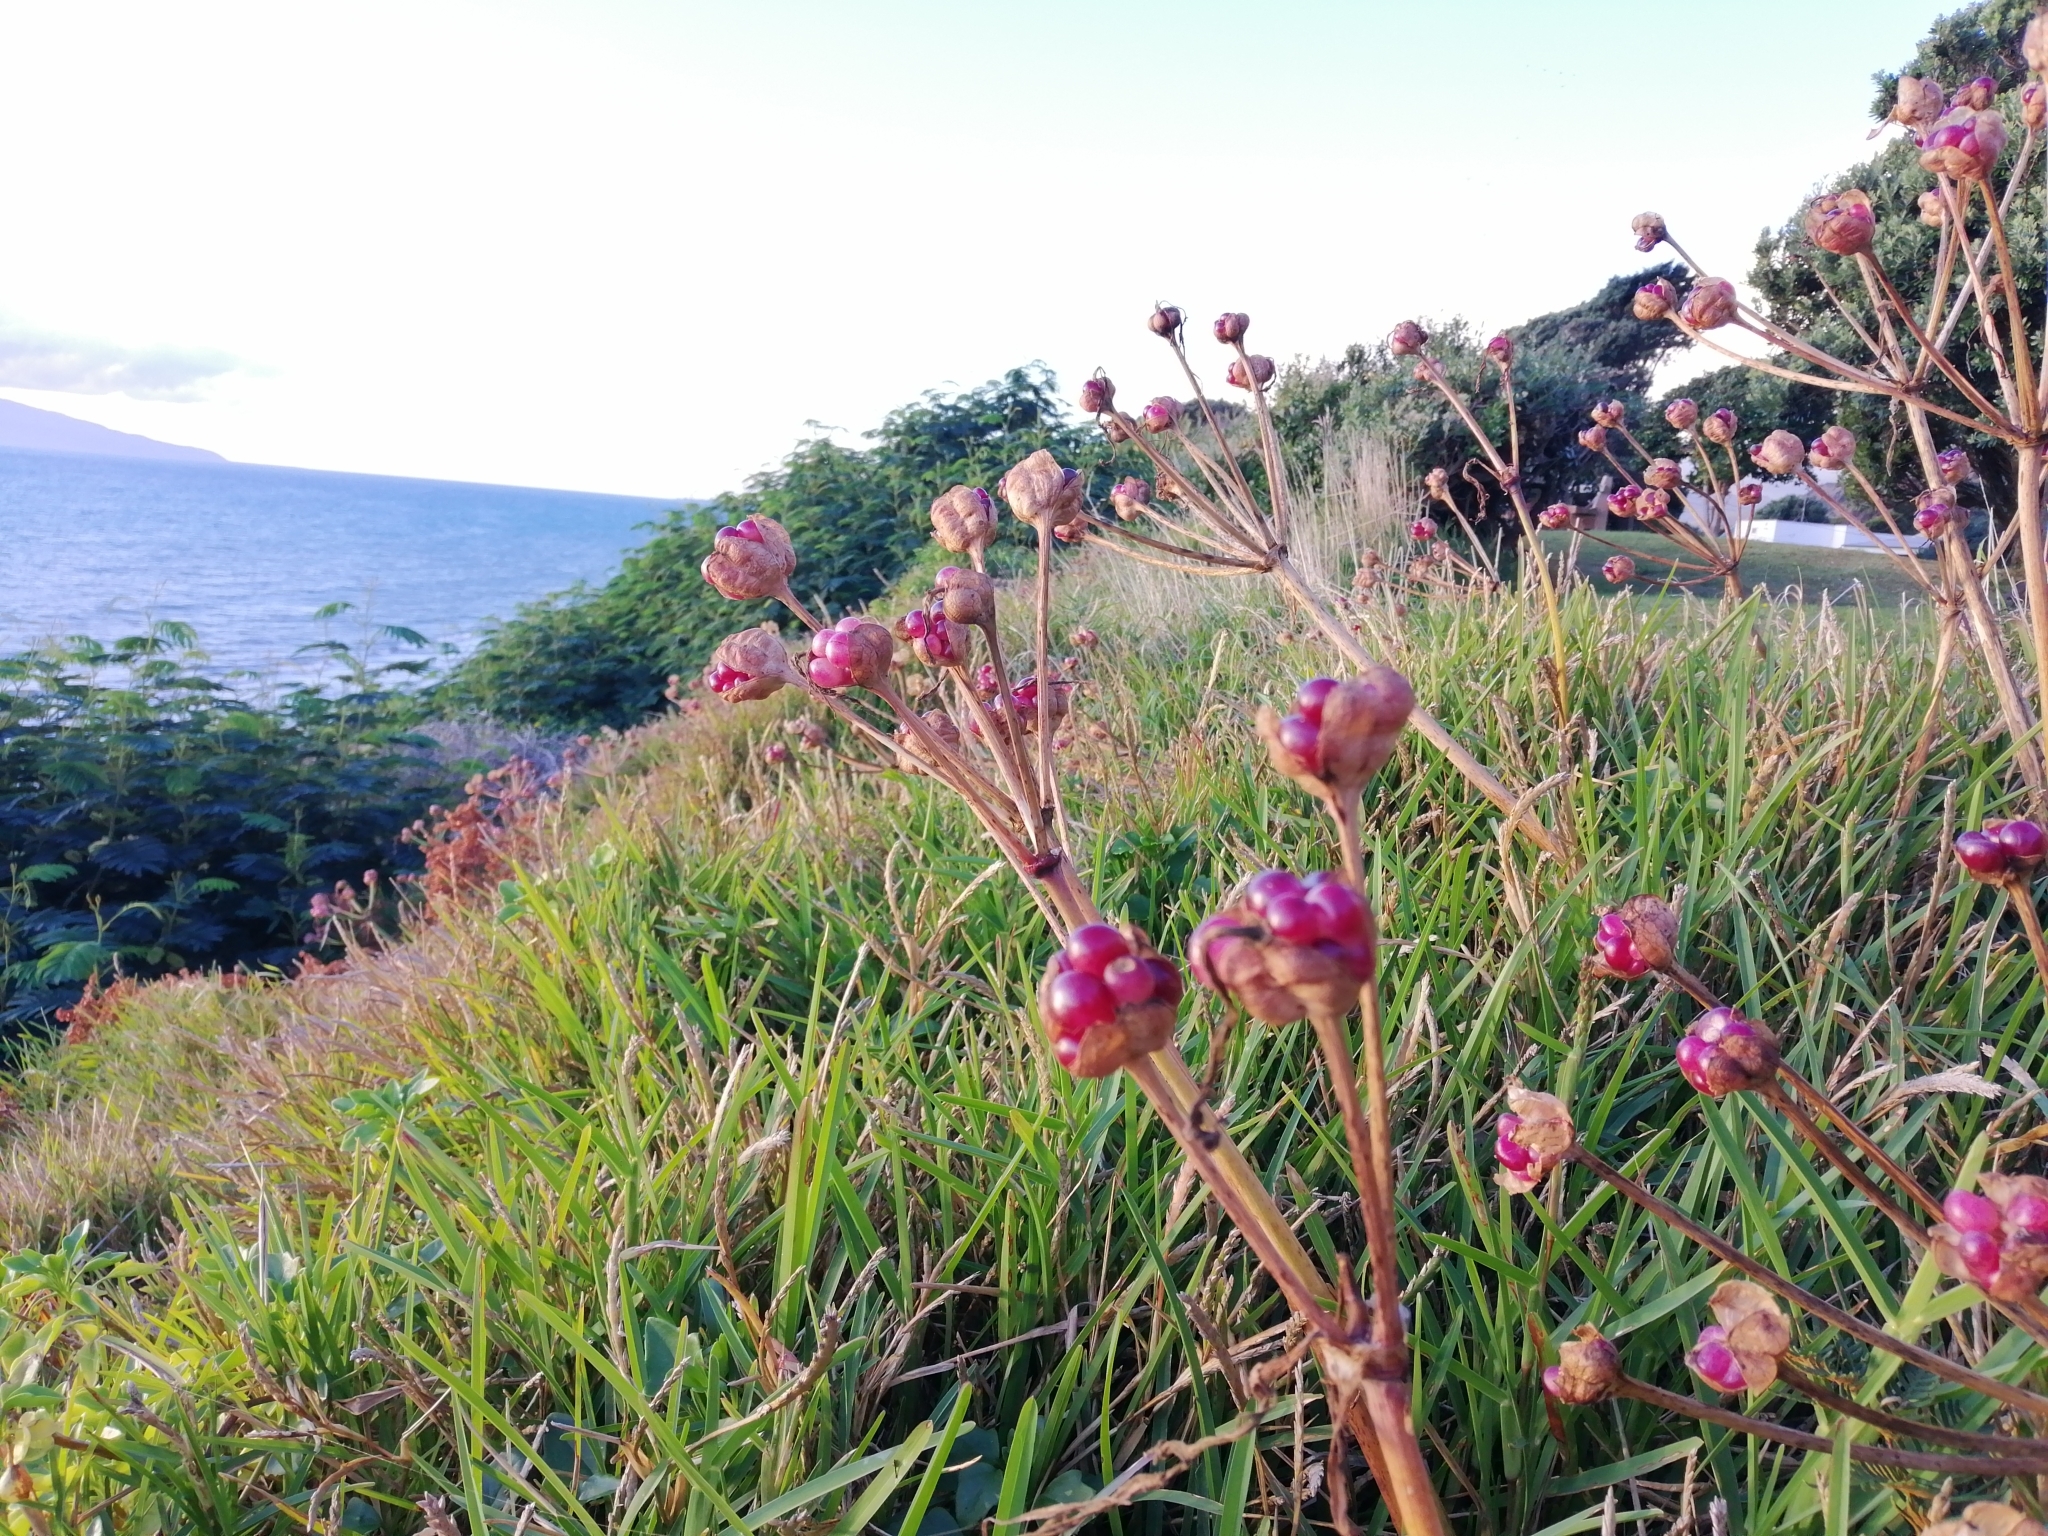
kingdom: Plantae
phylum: Tracheophyta
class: Liliopsida
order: Asparagales
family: Amaryllidaceae
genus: Amaryllis
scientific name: Amaryllis belladonna
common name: Jersey lily
